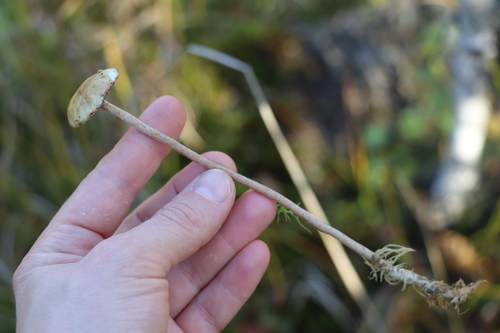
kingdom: Fungi
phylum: Basidiomycota
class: Agaricomycetes
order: Agaricales
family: Strophariaceae
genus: Hypholoma
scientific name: Hypholoma myosotis
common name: Olive brownie
